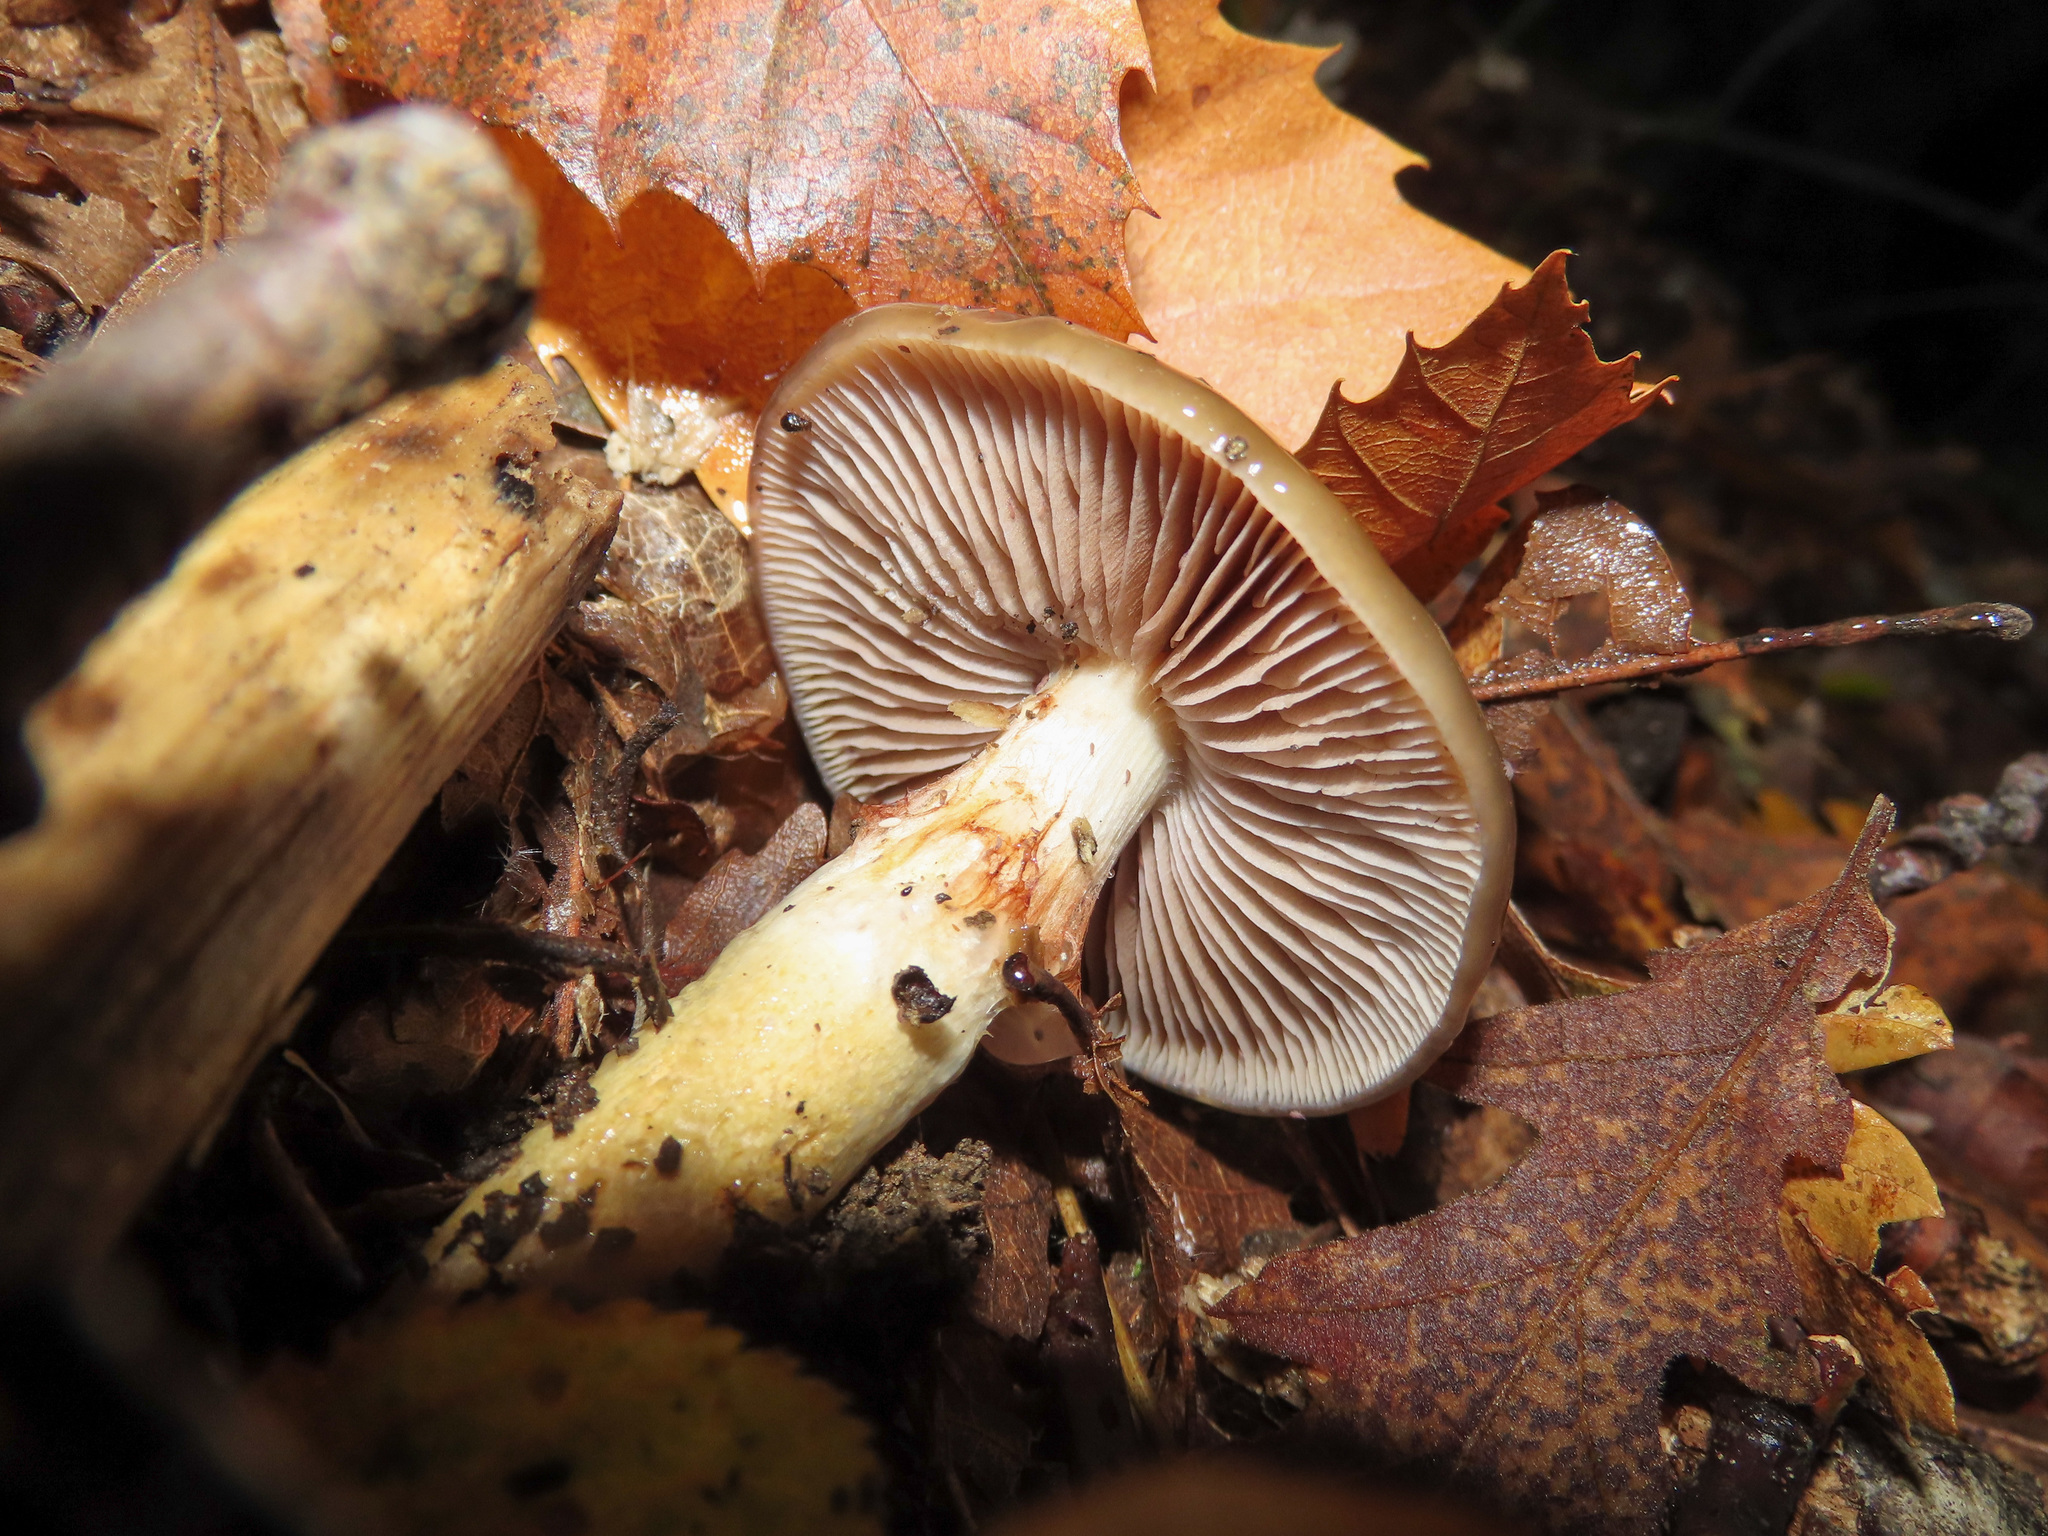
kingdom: Fungi
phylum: Basidiomycota
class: Agaricomycetes
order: Agaricales
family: Cortinariaceae
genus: Cortinarius
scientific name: Cortinarius trivialis
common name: Girdled webcap
